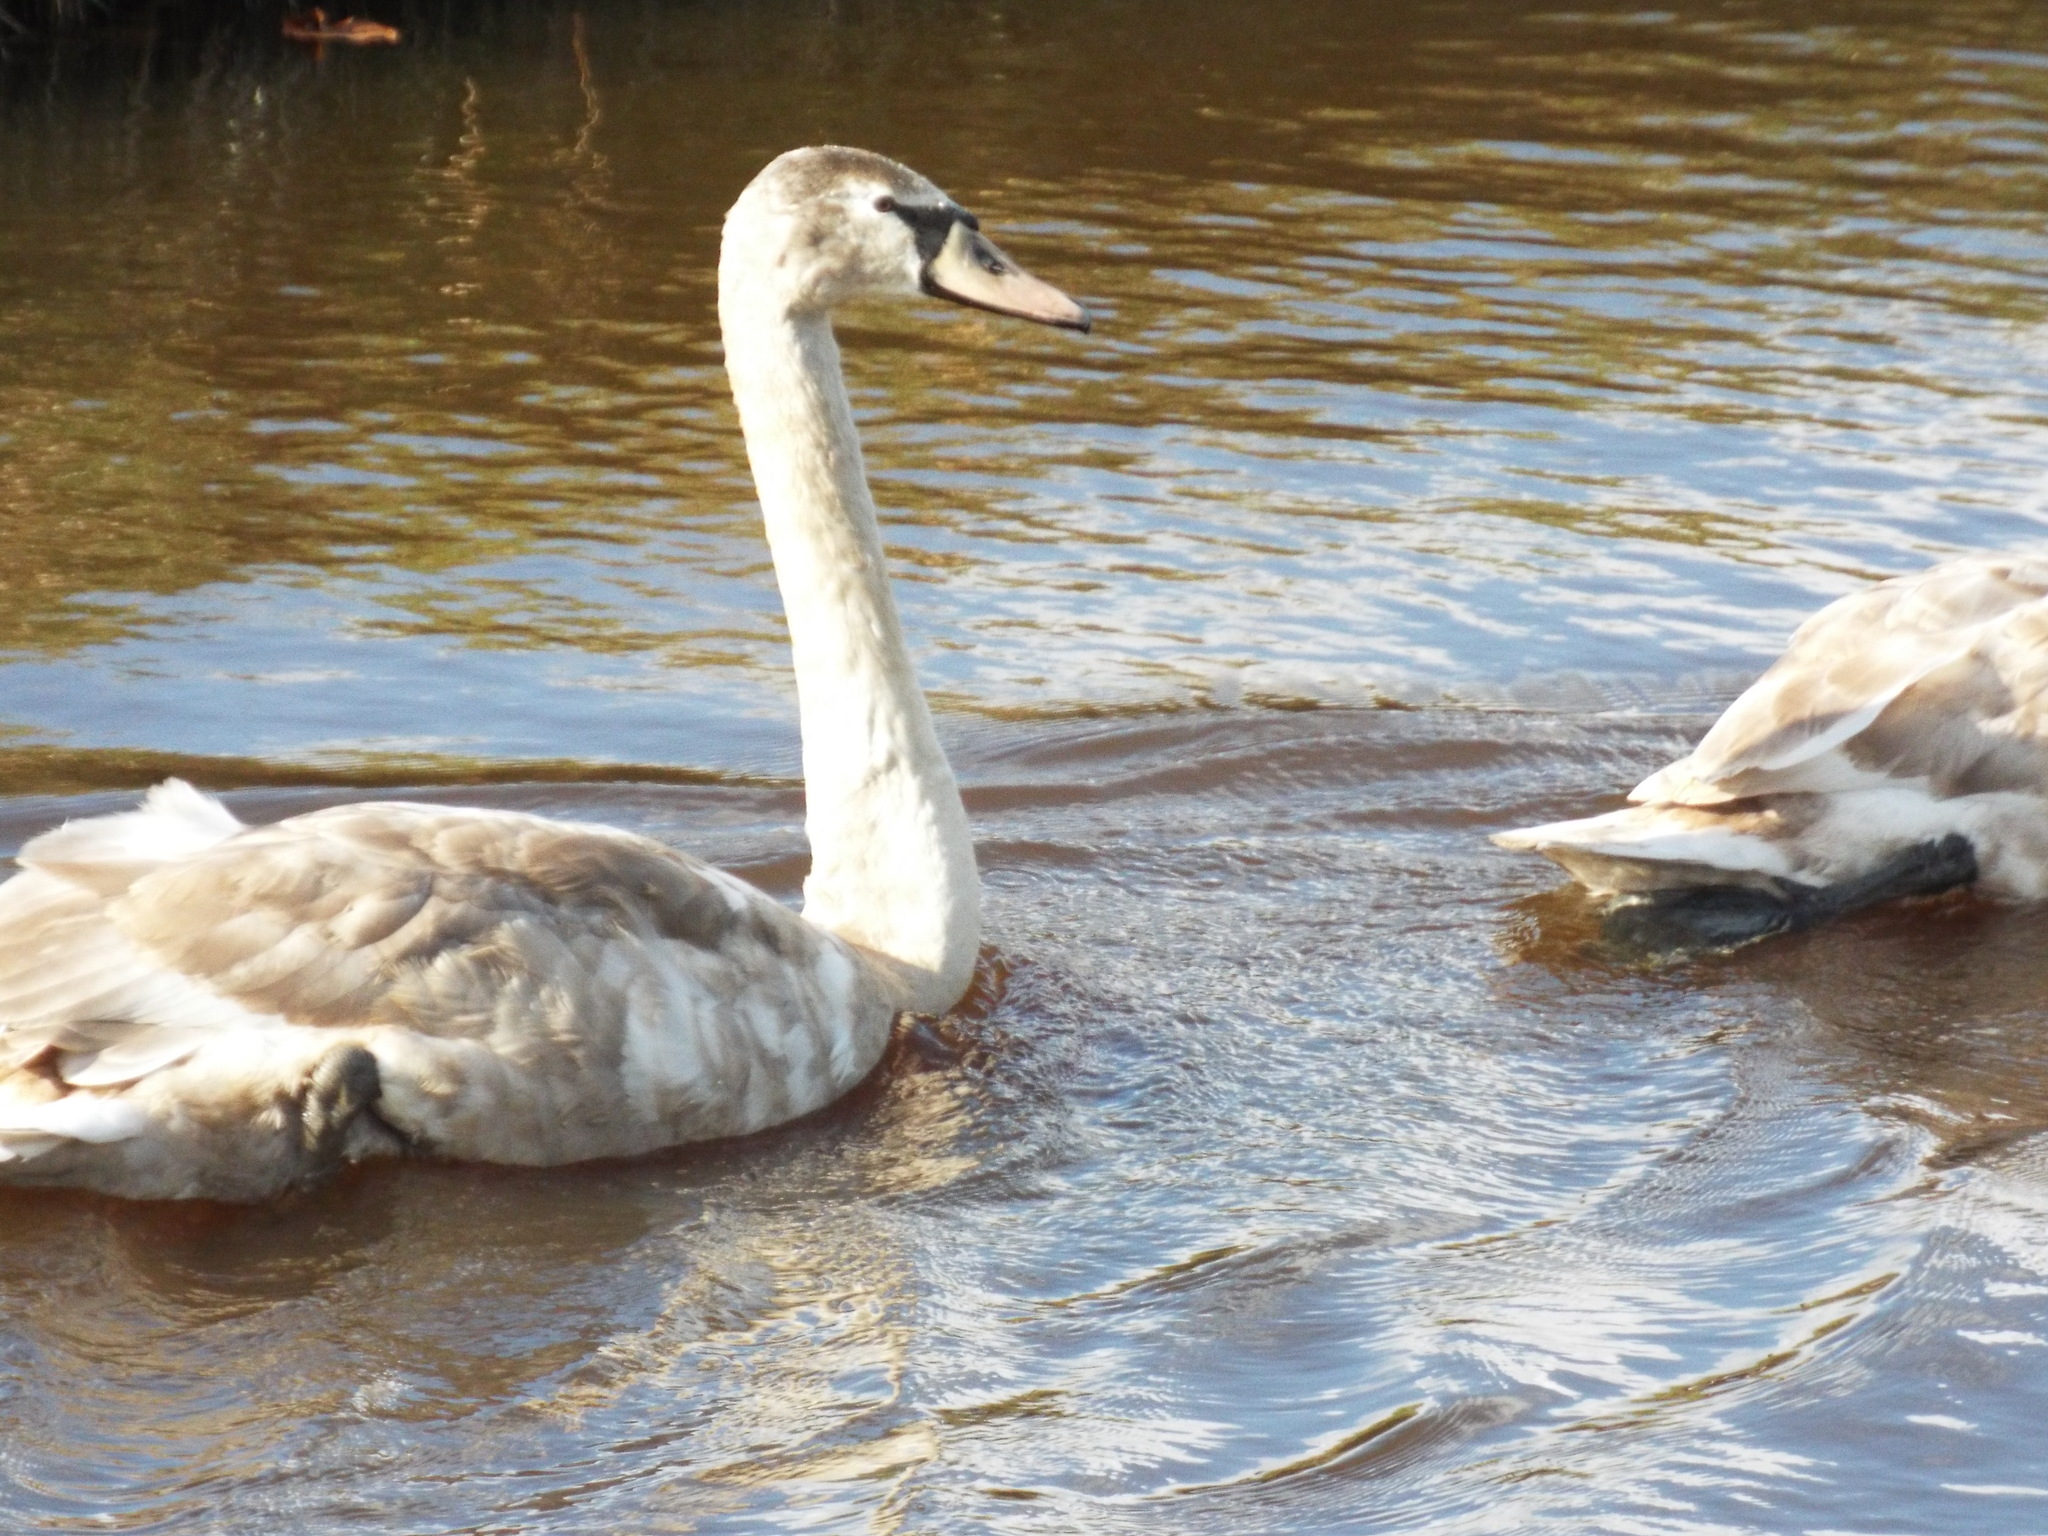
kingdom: Animalia
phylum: Chordata
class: Aves
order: Anseriformes
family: Anatidae
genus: Cygnus
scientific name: Cygnus olor
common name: Mute swan
